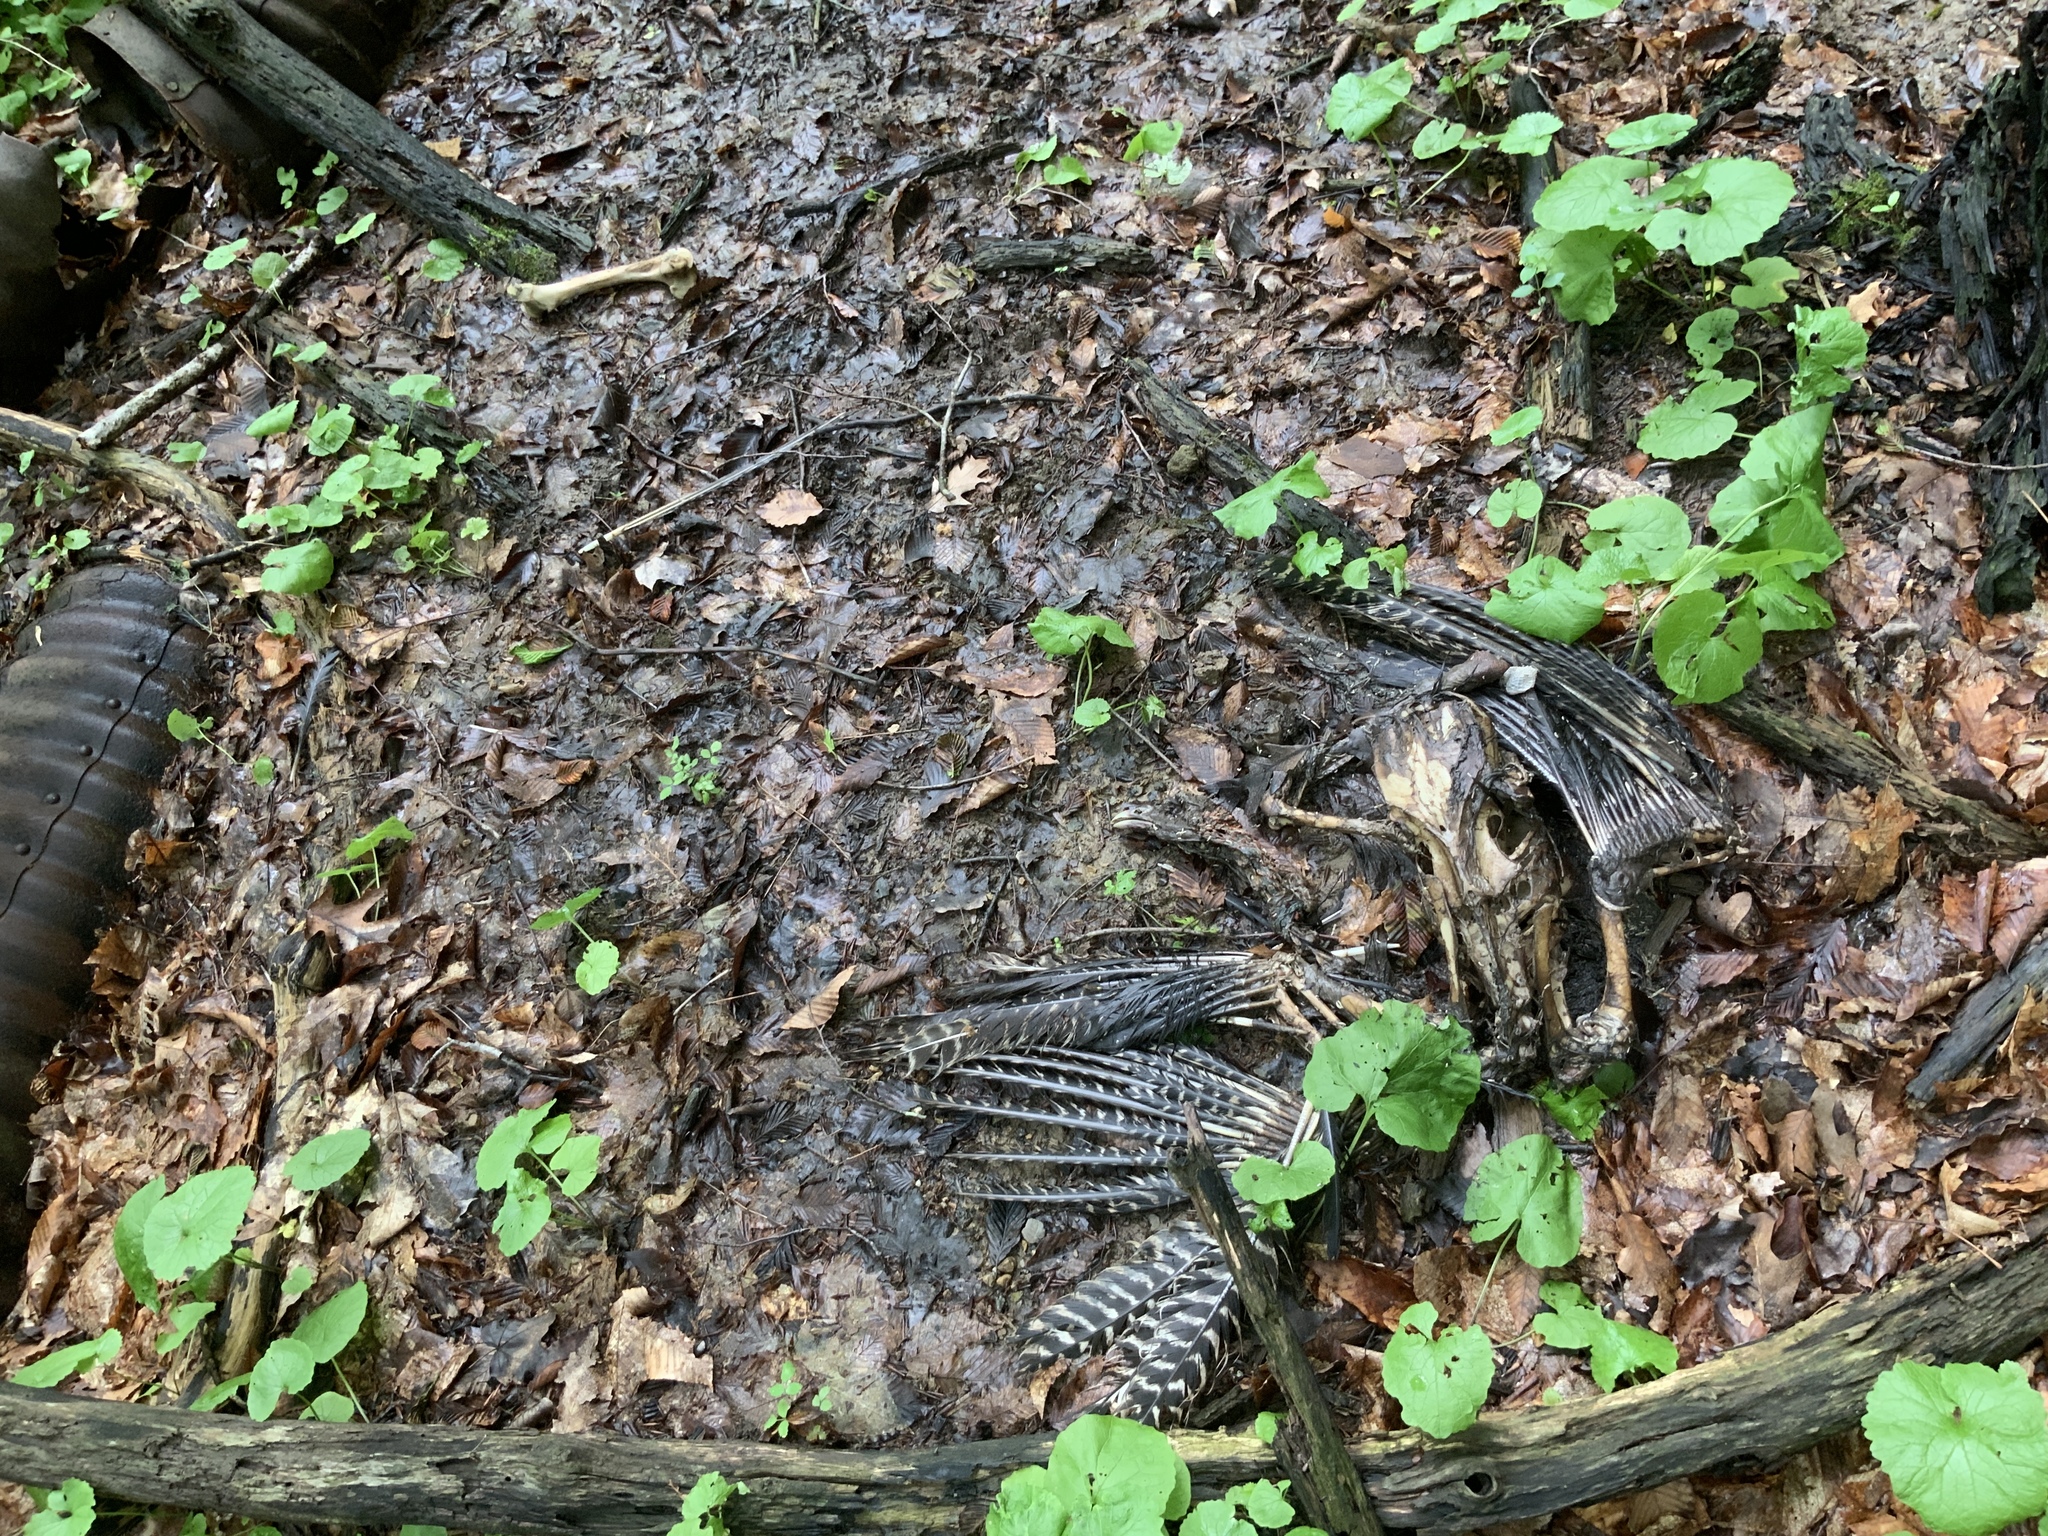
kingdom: Animalia
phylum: Chordata
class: Aves
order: Galliformes
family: Phasianidae
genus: Meleagris
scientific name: Meleagris gallopavo
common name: Wild turkey
